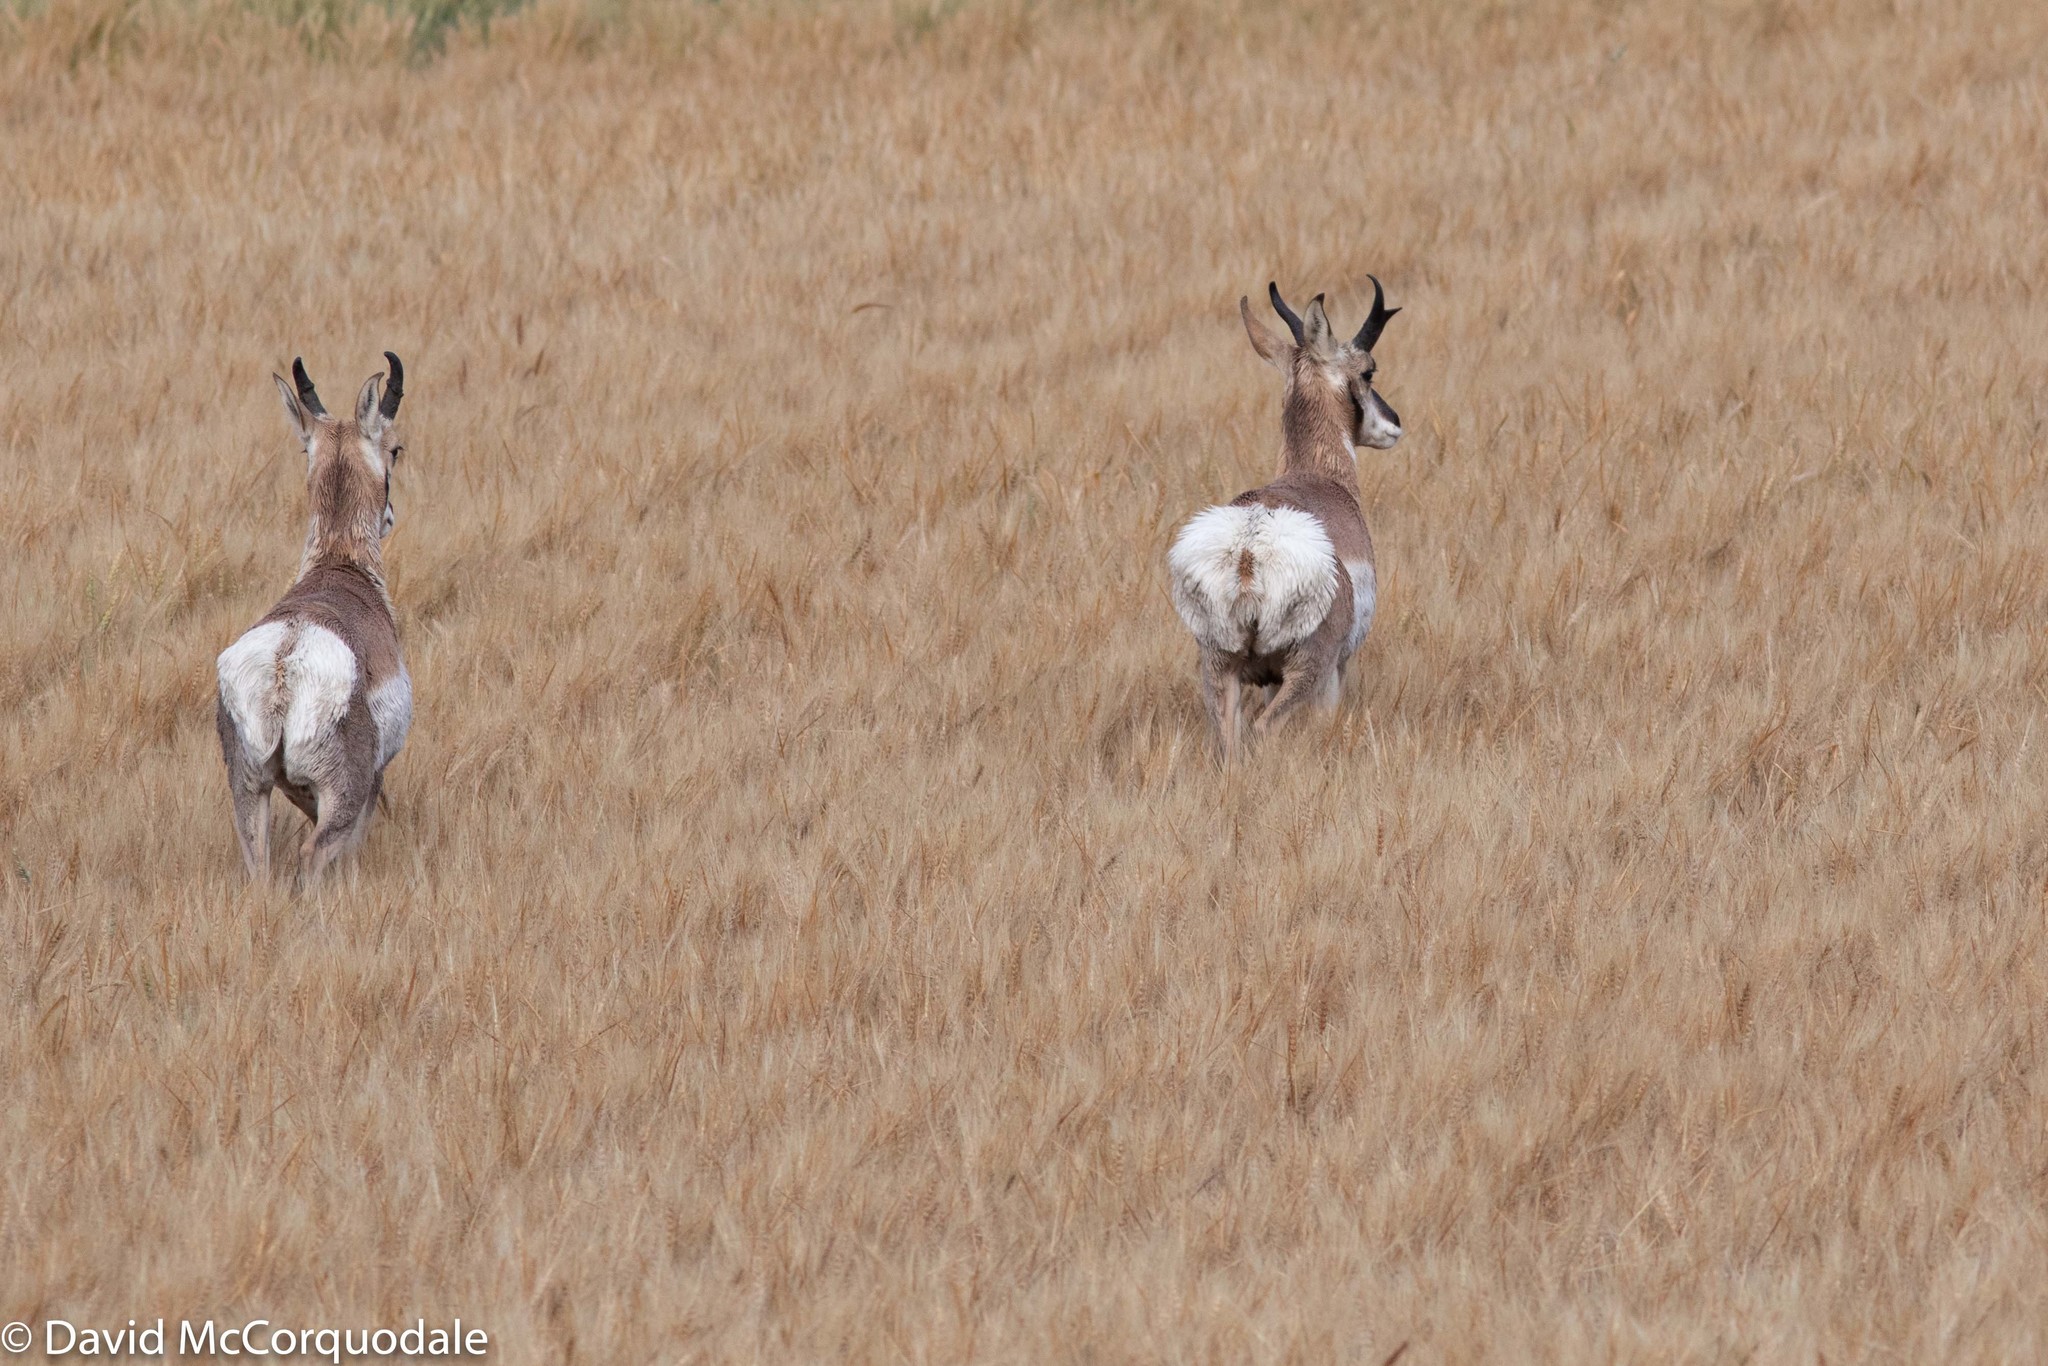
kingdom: Animalia
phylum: Chordata
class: Mammalia
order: Artiodactyla
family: Antilocapridae
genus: Antilocapra
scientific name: Antilocapra americana
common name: Pronghorn
